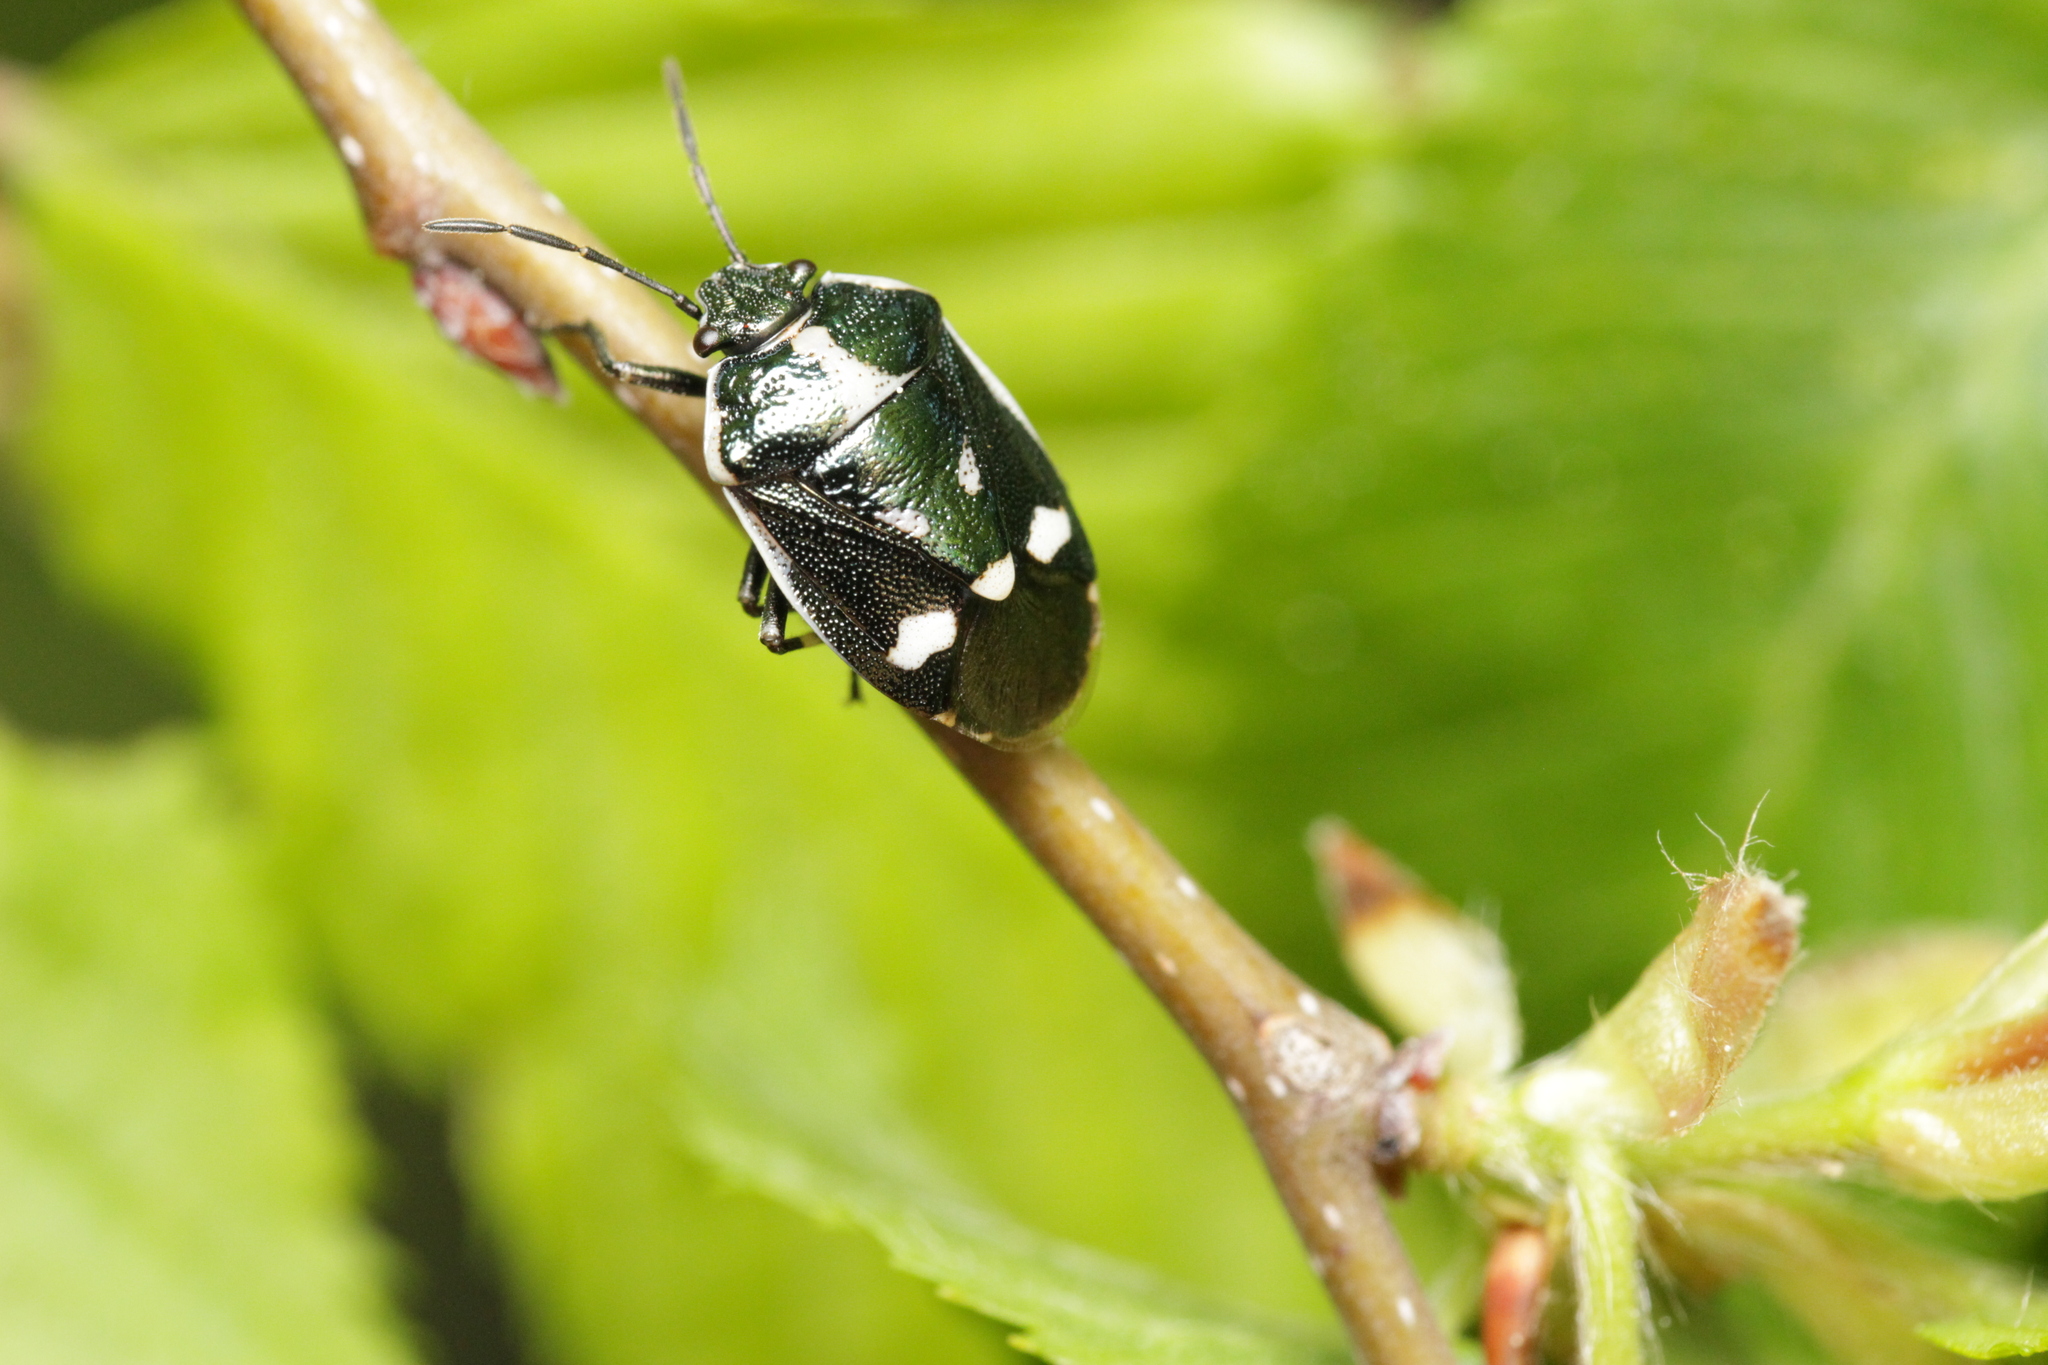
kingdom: Animalia
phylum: Arthropoda
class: Insecta
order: Hemiptera
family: Pentatomidae
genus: Eurydema
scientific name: Eurydema oleracea
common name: Cabbage bug
